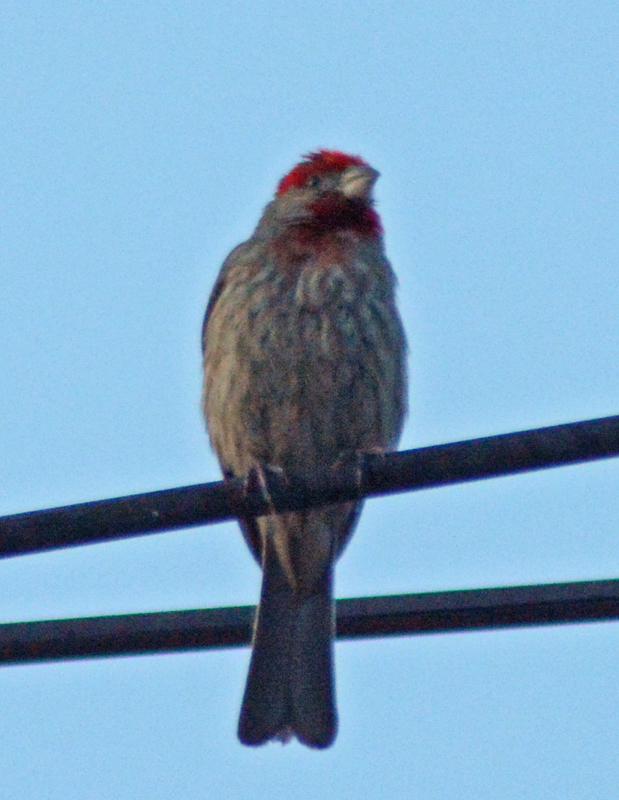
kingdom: Animalia
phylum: Chordata
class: Aves
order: Passeriformes
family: Fringillidae
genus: Haemorhous
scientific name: Haemorhous mexicanus
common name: House finch
